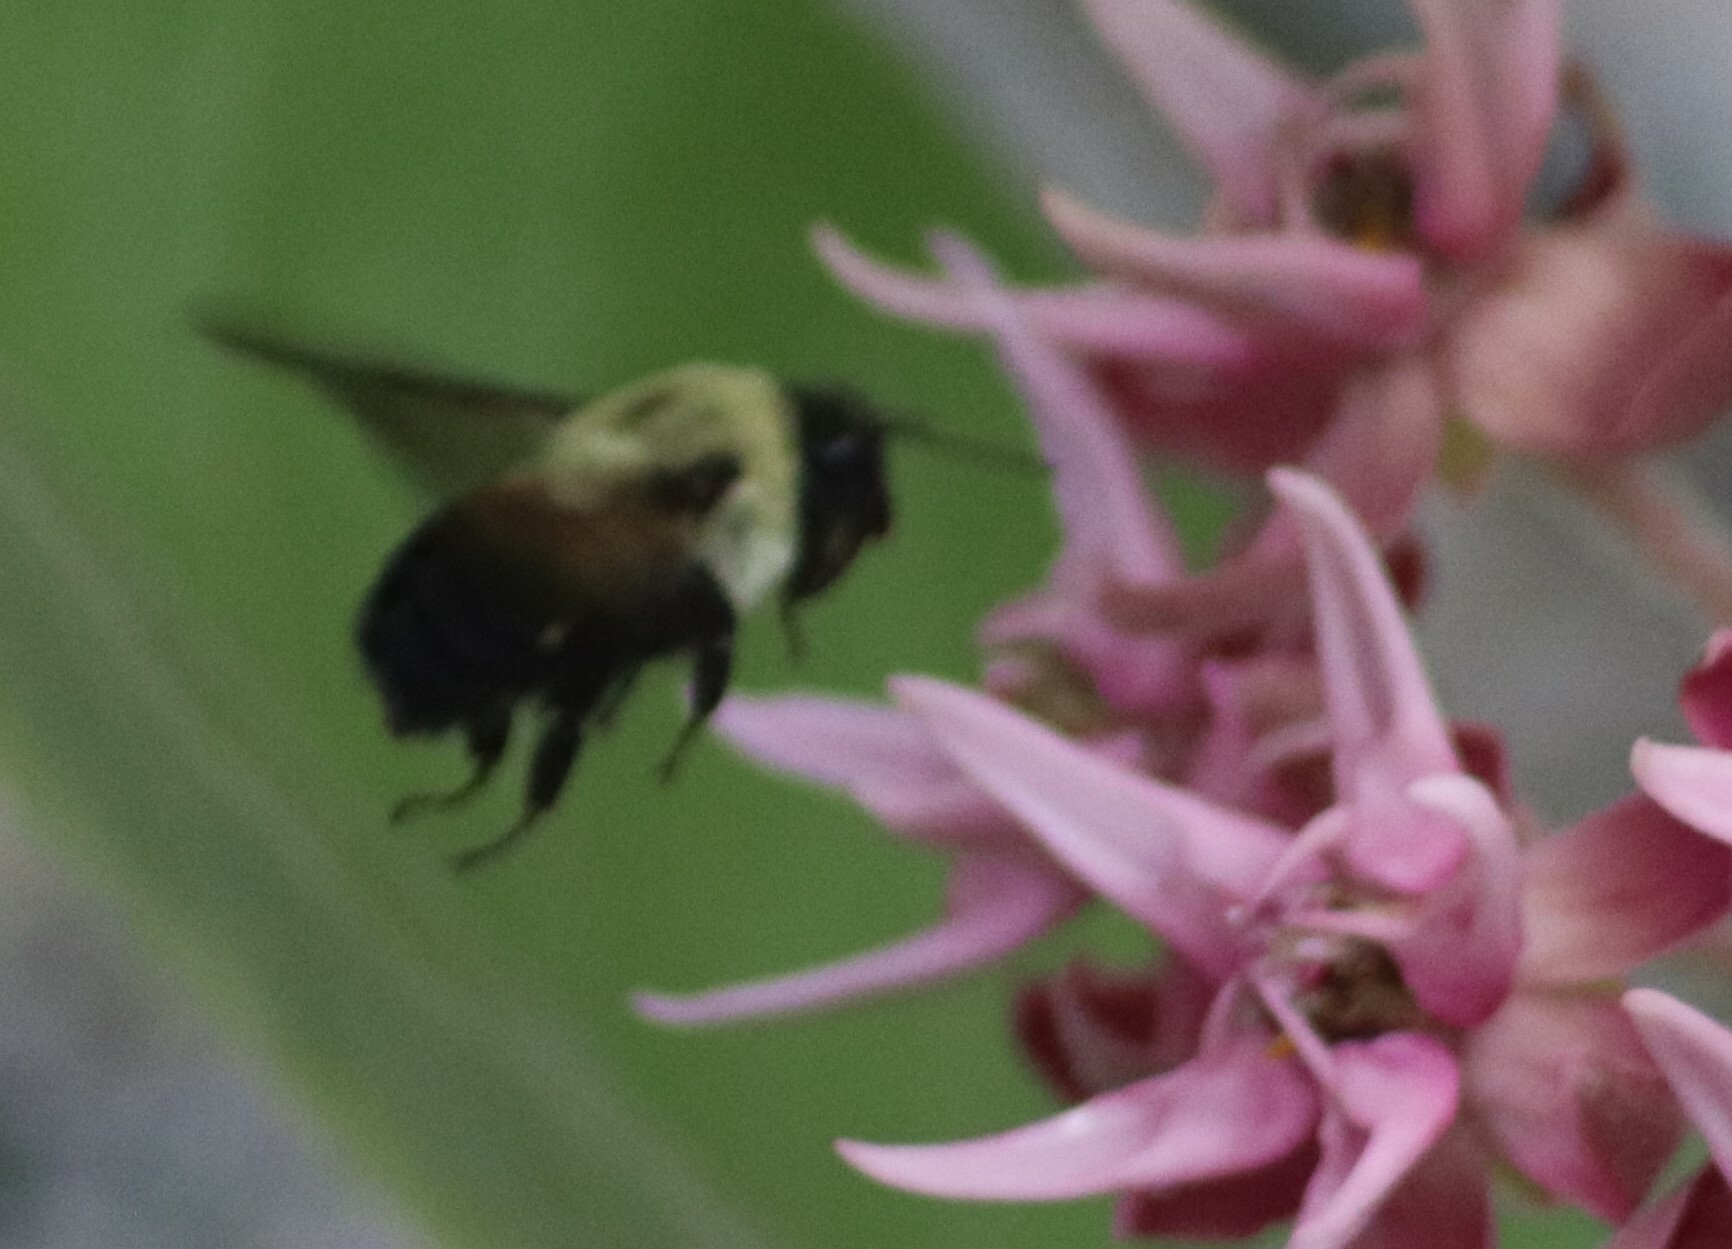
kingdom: Animalia
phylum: Arthropoda
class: Insecta
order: Hymenoptera
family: Apidae
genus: Bombus
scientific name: Bombus griseocollis
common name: Brown-belted bumble bee
